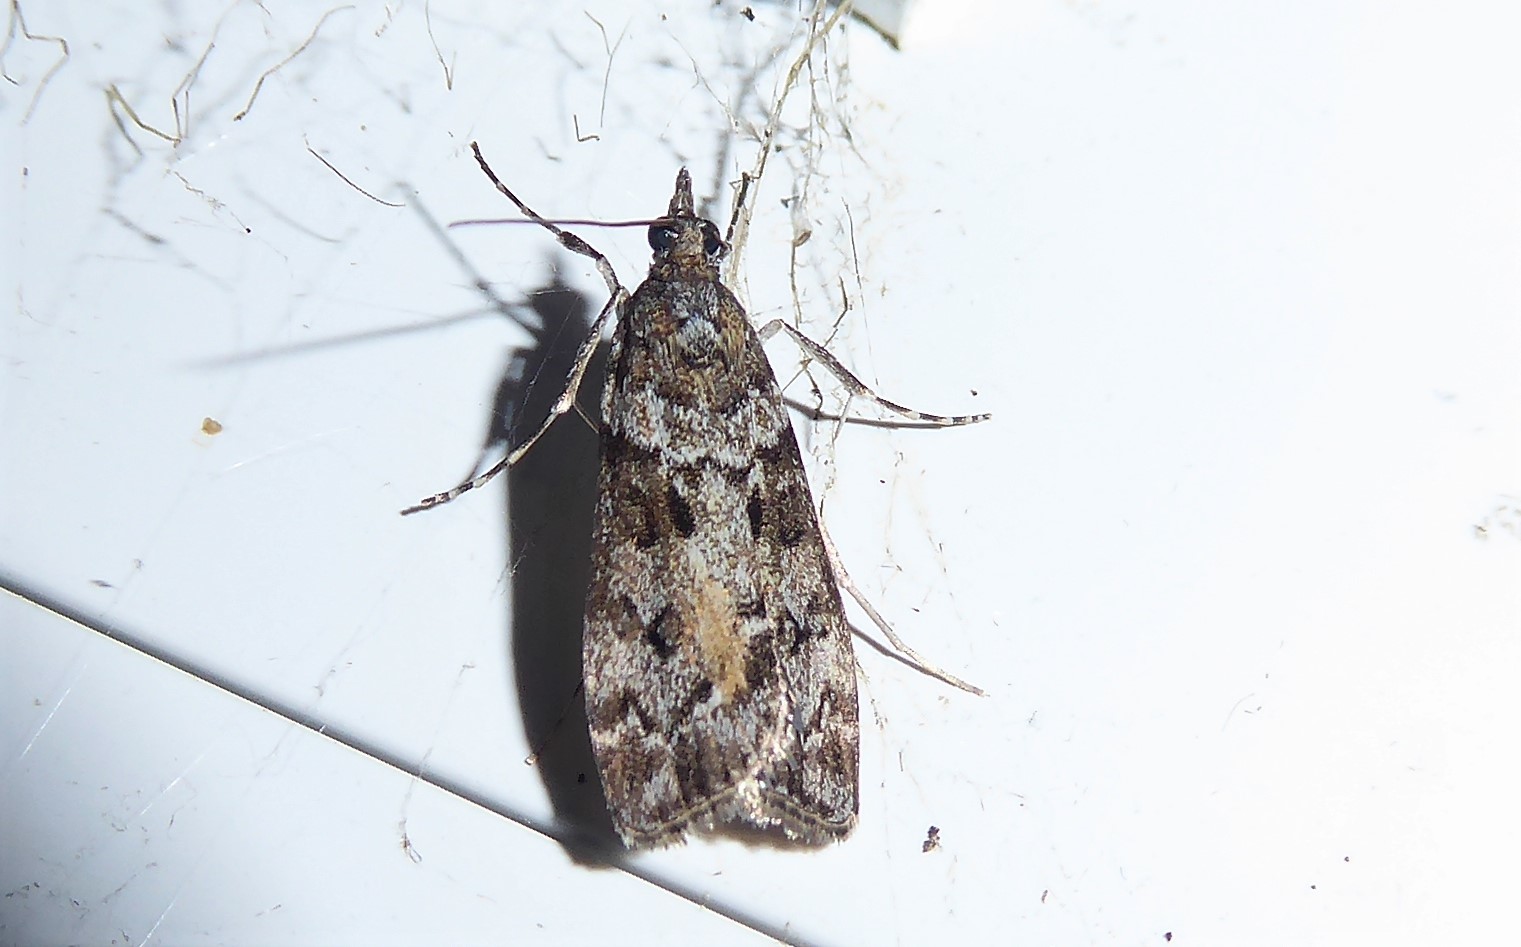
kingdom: Animalia
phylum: Arthropoda
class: Insecta
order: Lepidoptera
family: Crambidae
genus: Eudonia
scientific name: Eudonia submarginalis
